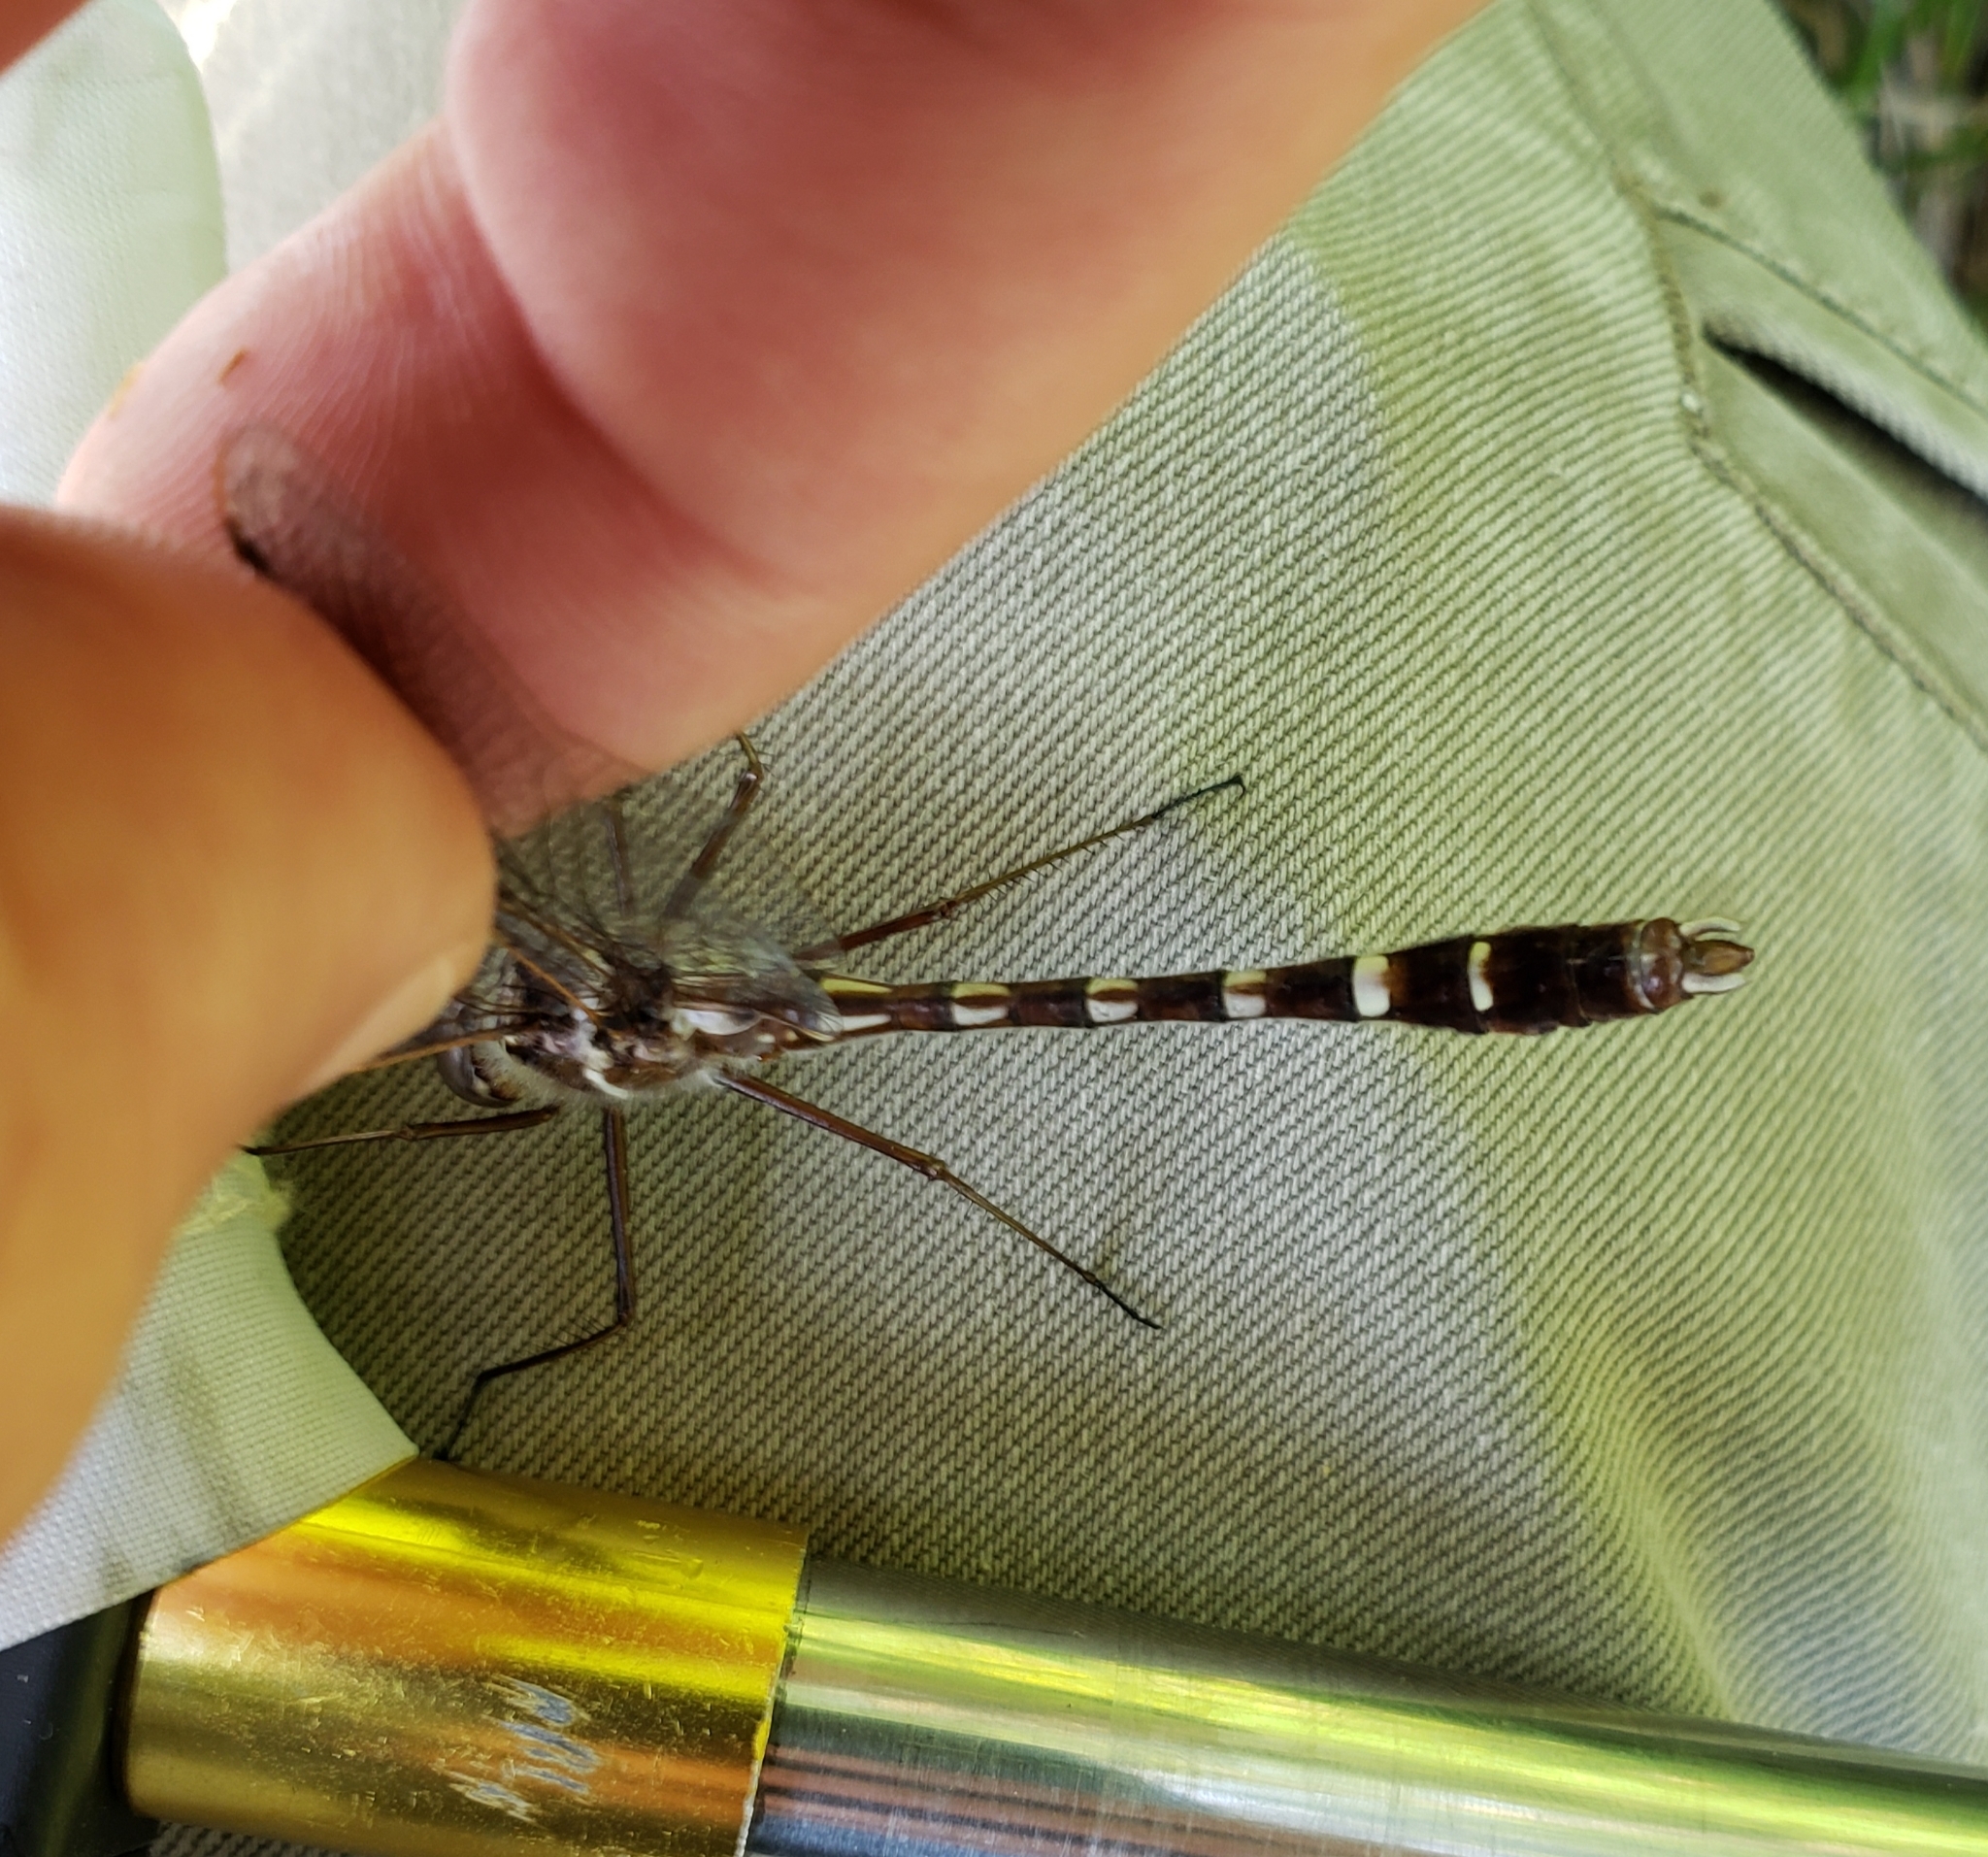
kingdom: Animalia
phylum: Arthropoda
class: Insecta
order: Odonata
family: Macromiidae
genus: Didymops
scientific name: Didymops transversa
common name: Stream cruiser
